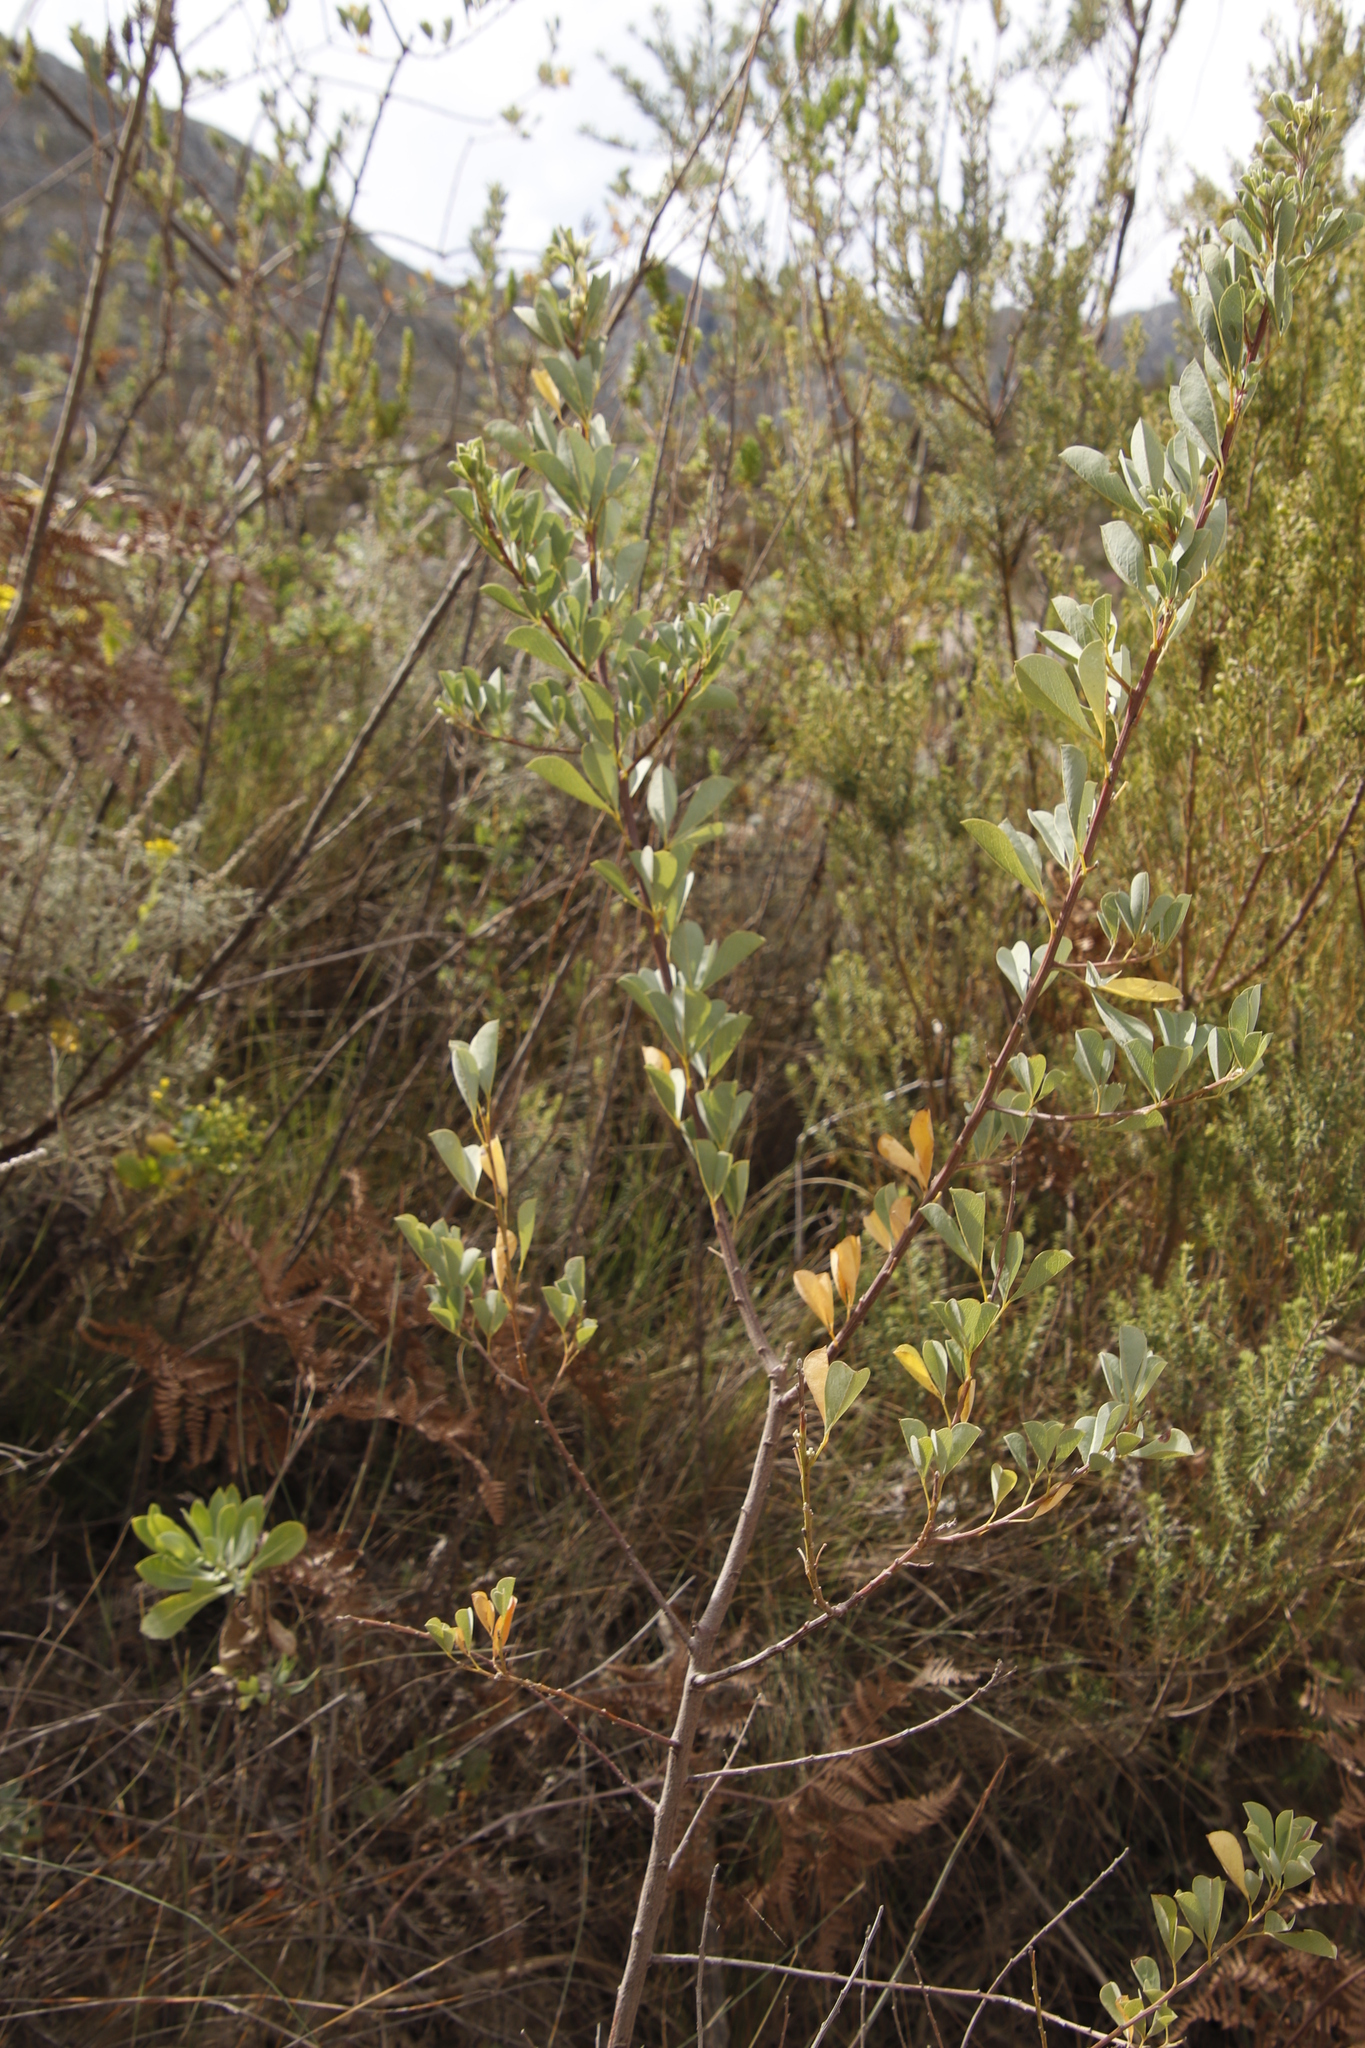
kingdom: Plantae
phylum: Tracheophyta
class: Magnoliopsida
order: Fabales
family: Fabaceae
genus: Hypocalyptus
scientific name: Hypocalyptus sophoroides
